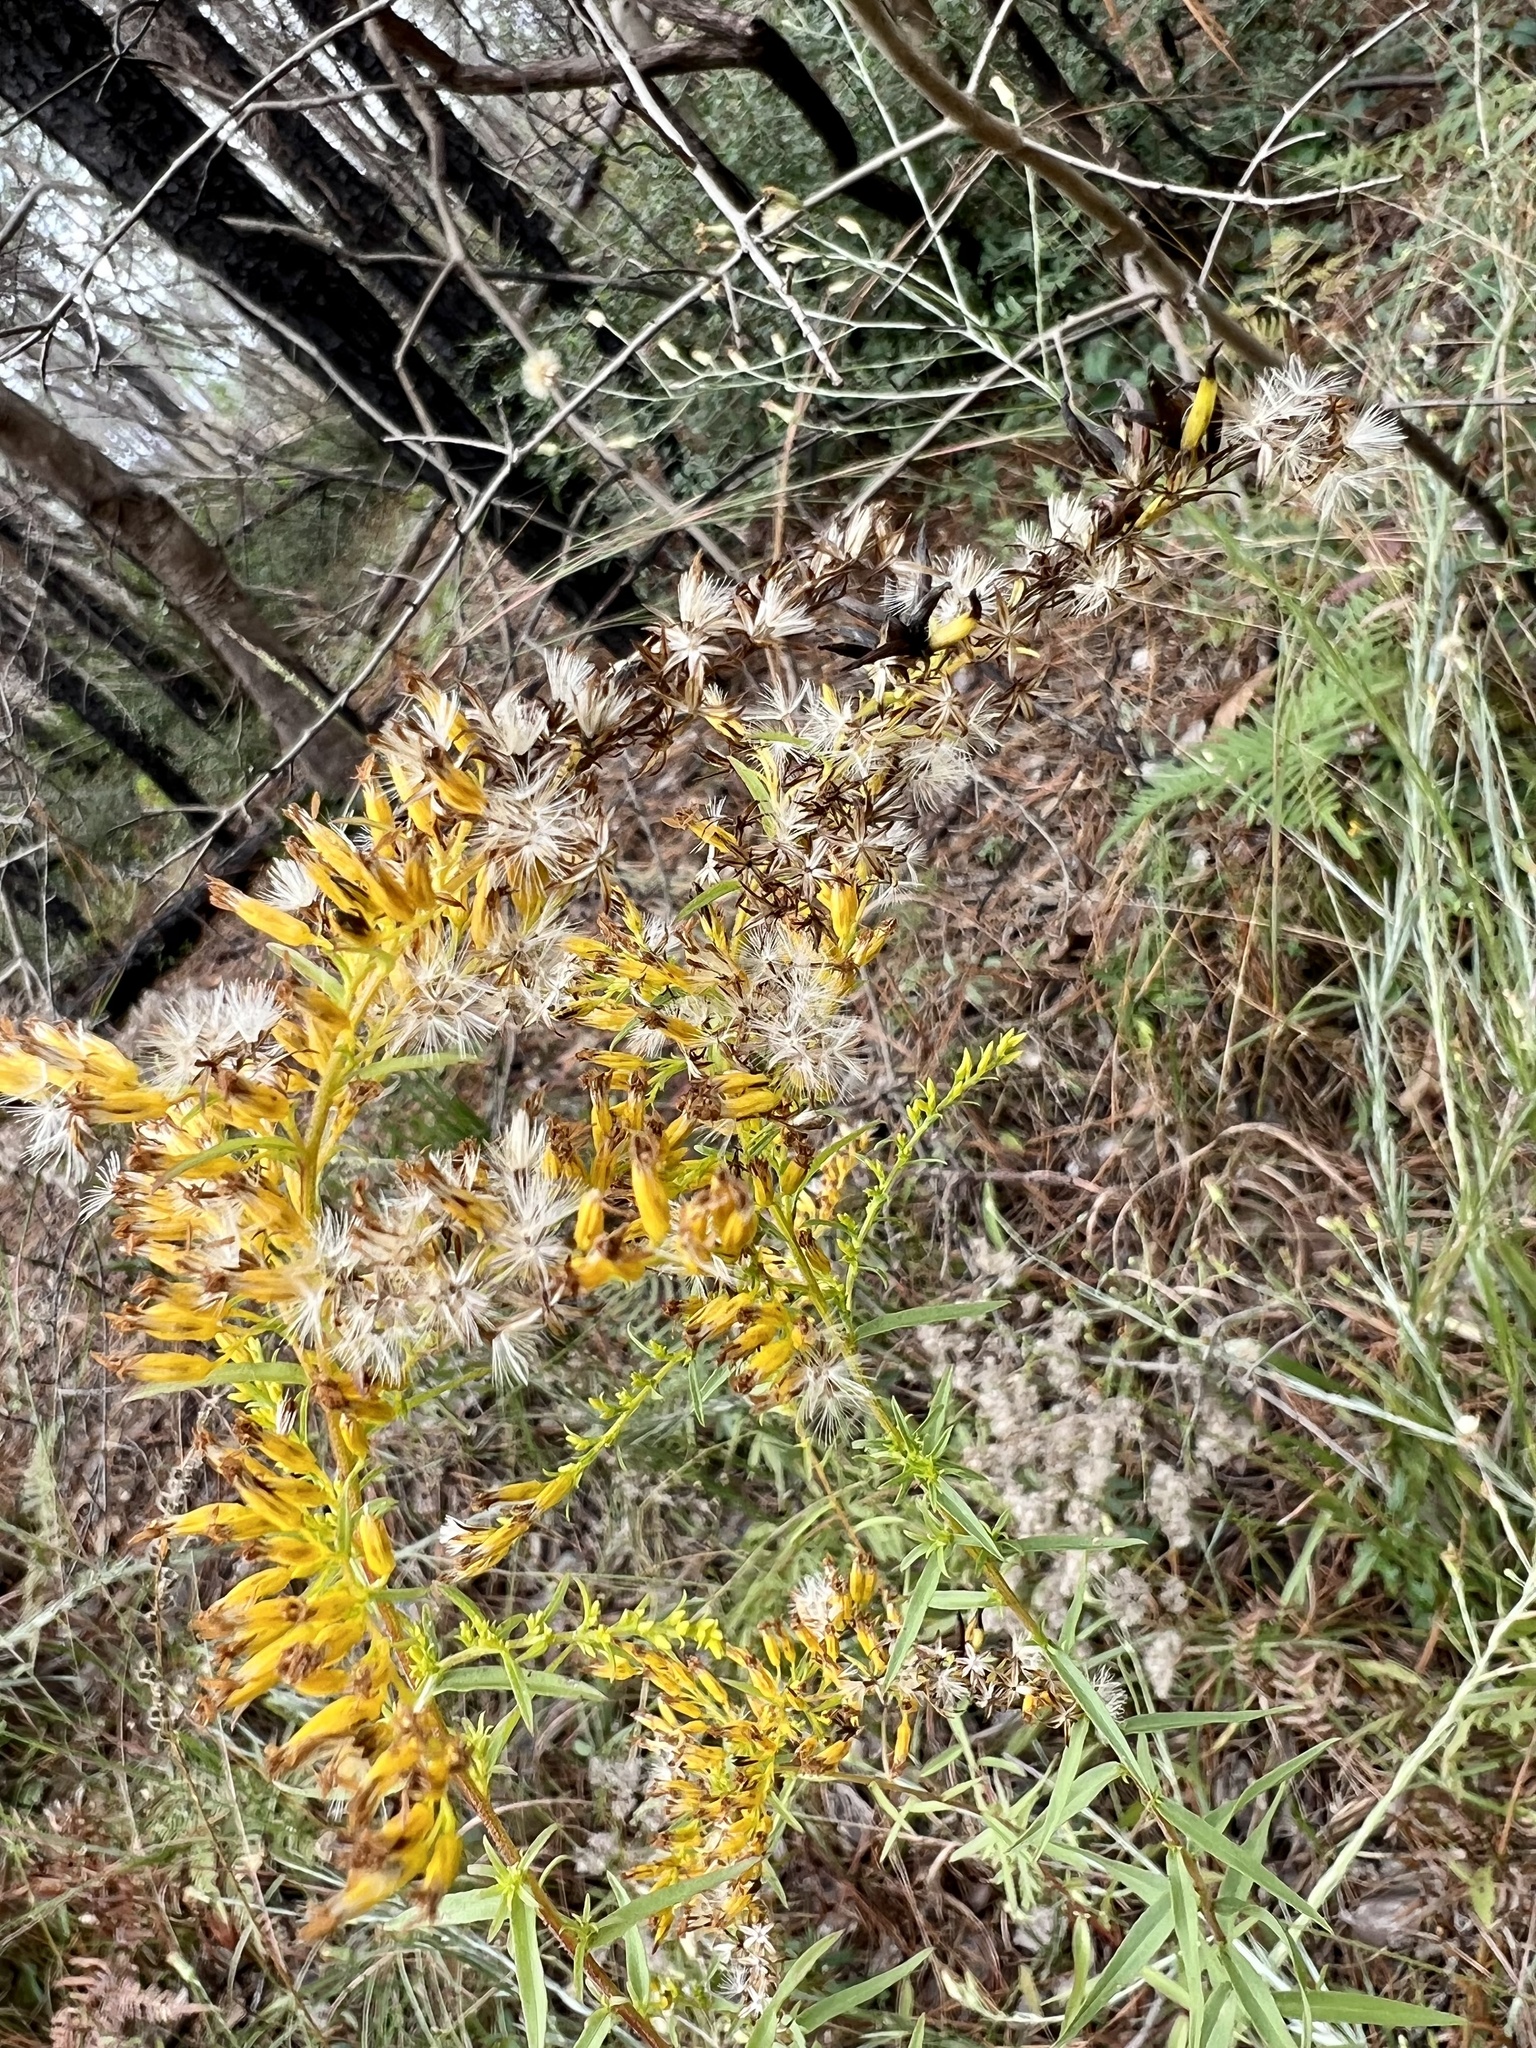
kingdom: Plantae
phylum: Tracheophyta
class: Magnoliopsida
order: Asterales
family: Asteraceae
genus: Solidago
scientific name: Solidago odora
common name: Anise-scented goldenrod
